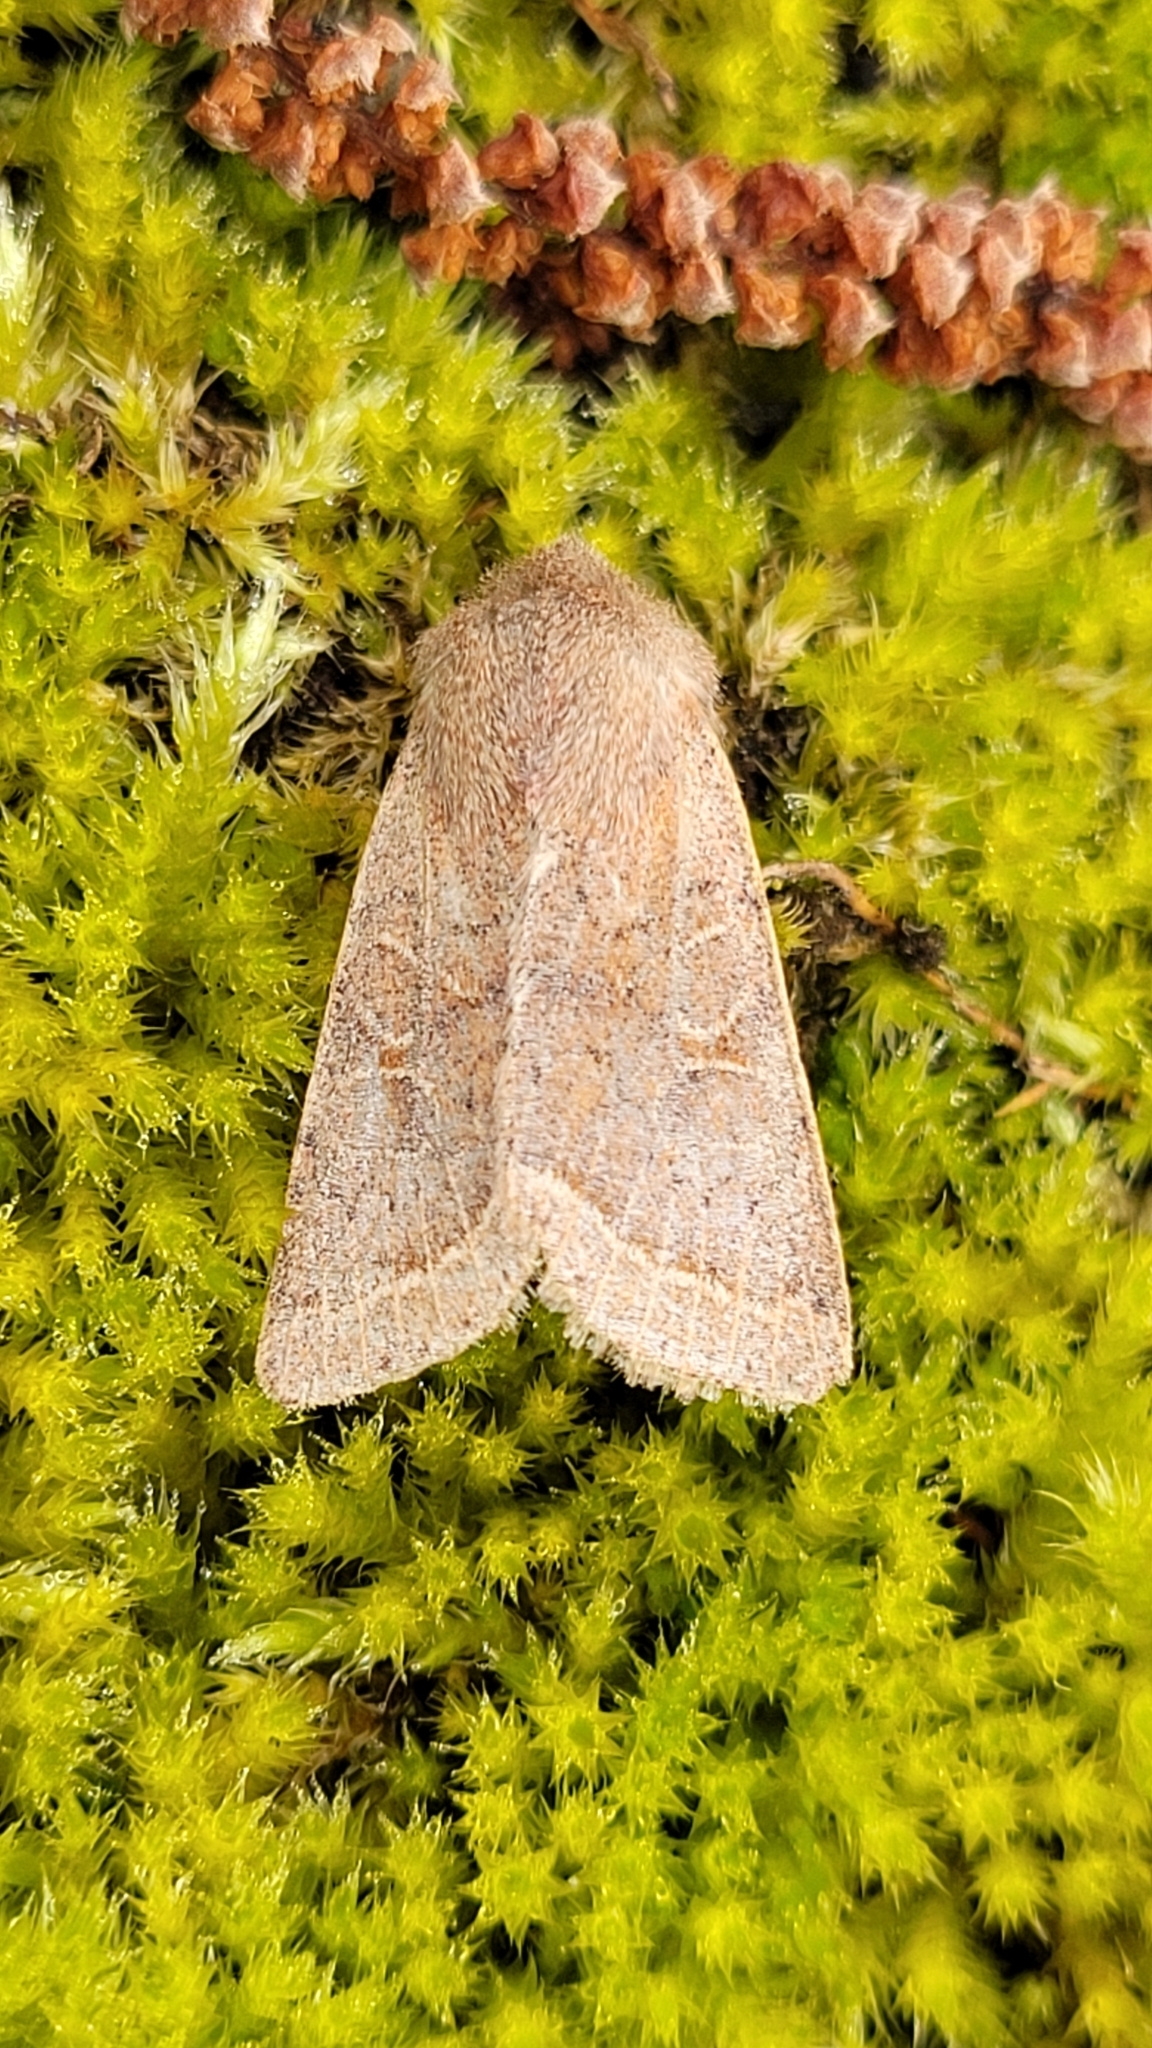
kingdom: Animalia
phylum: Arthropoda
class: Insecta
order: Lepidoptera
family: Noctuidae
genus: Orthosia
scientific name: Orthosia cerasi
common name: Common quaker
